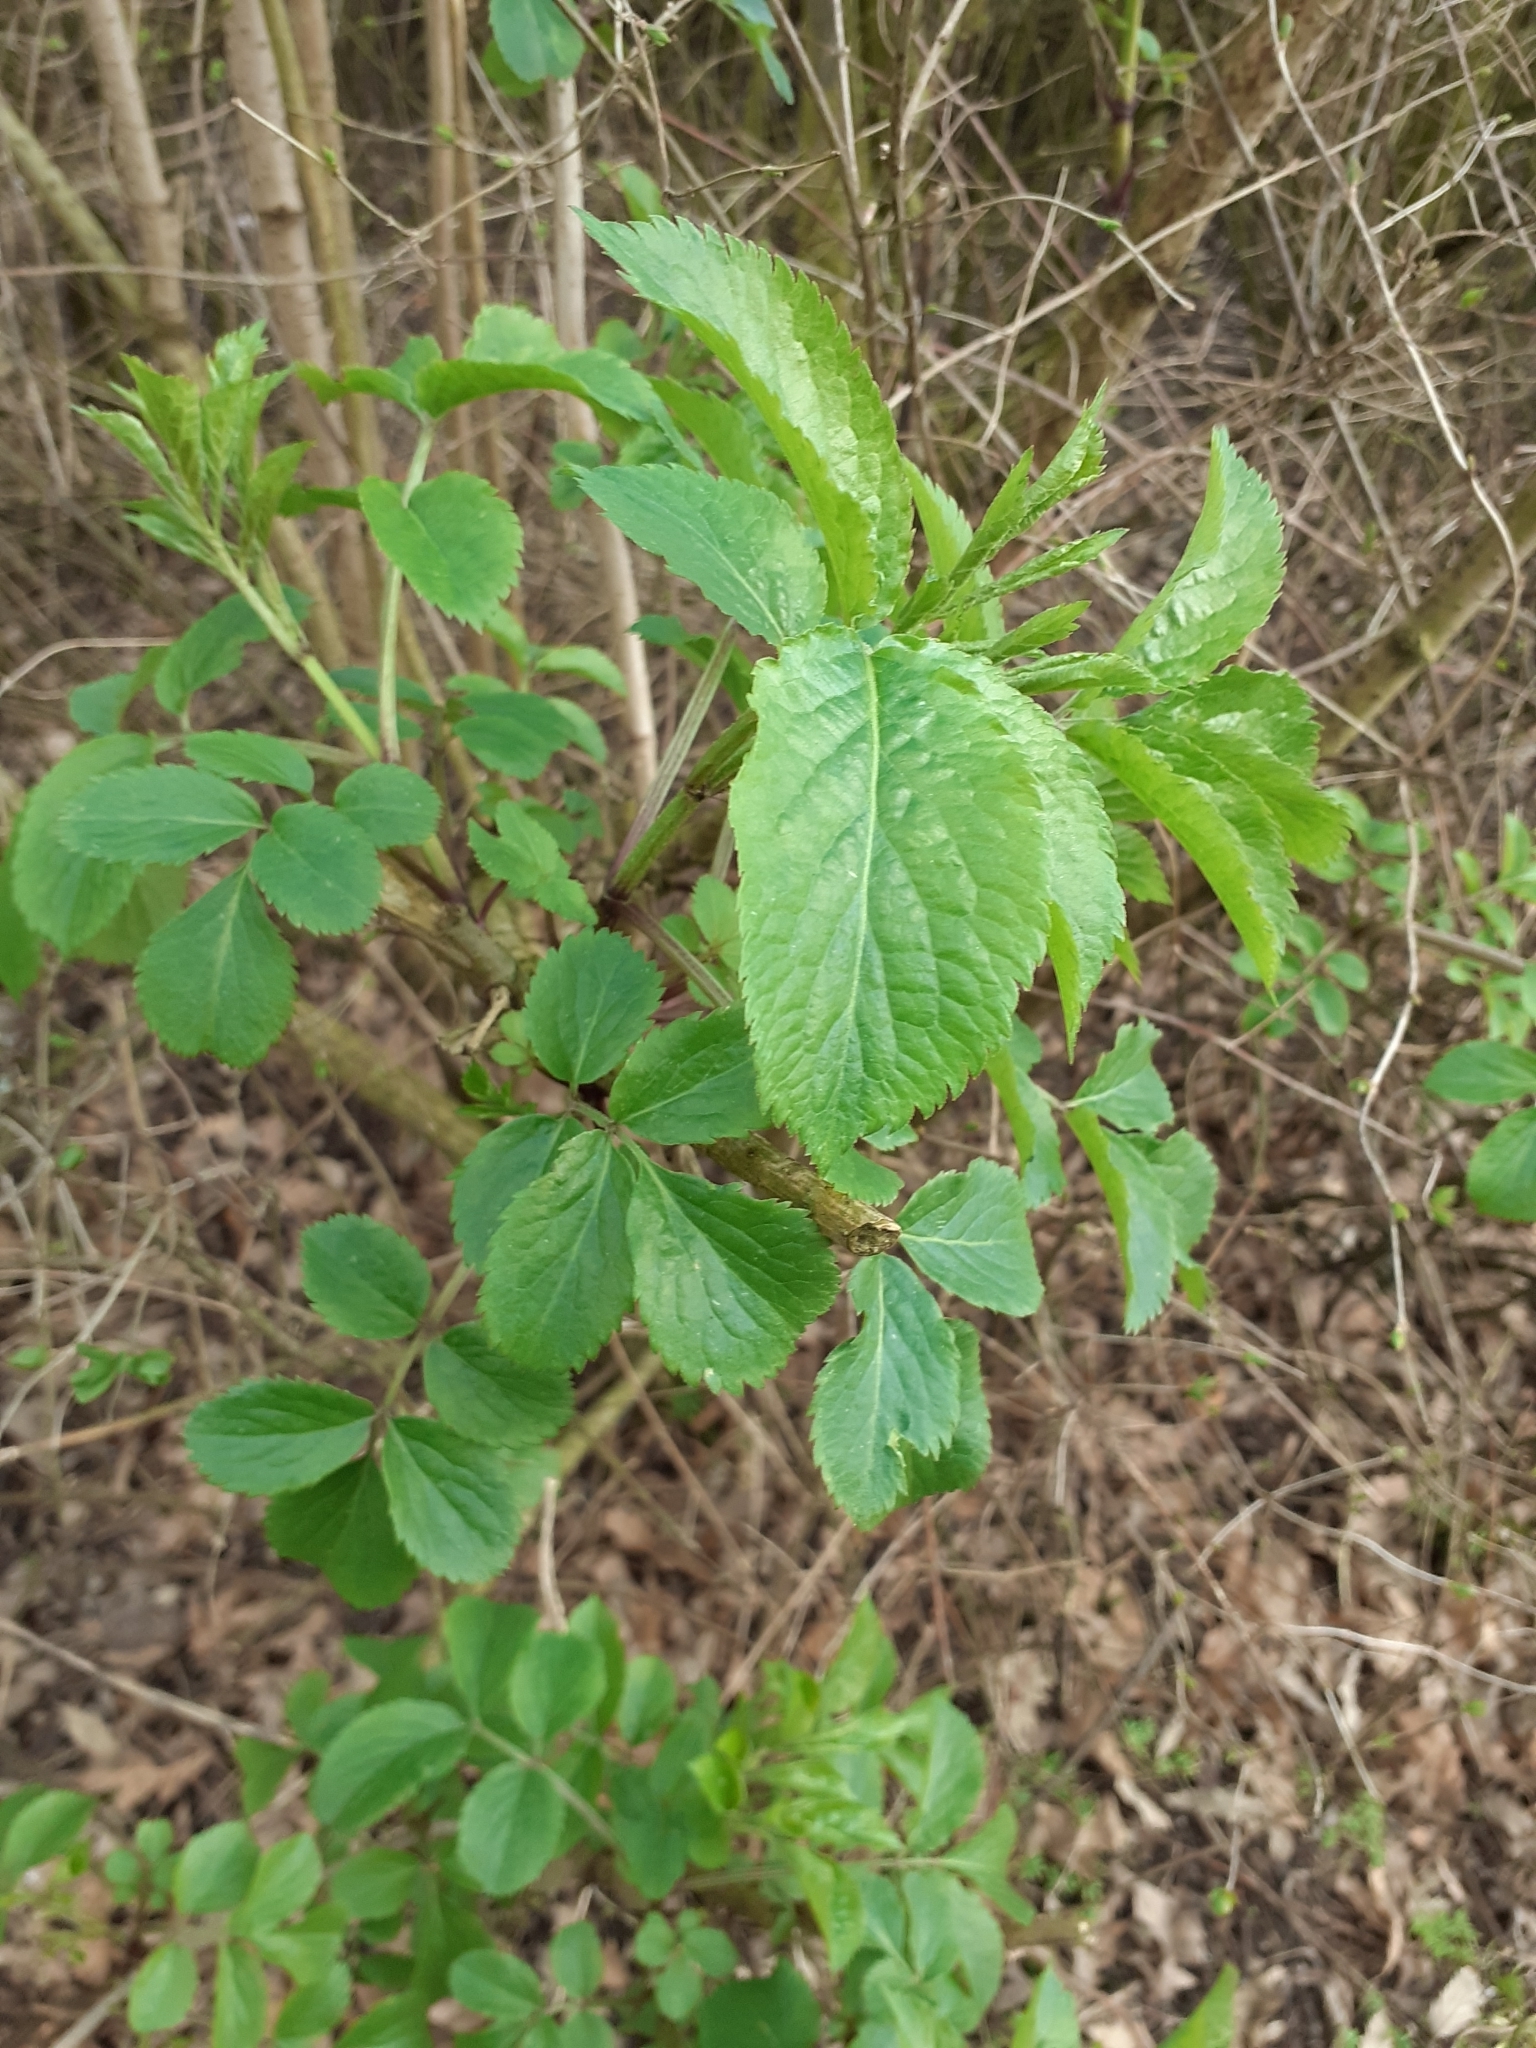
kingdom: Plantae
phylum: Tracheophyta
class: Magnoliopsida
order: Dipsacales
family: Viburnaceae
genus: Sambucus
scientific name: Sambucus nigra
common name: Elder
